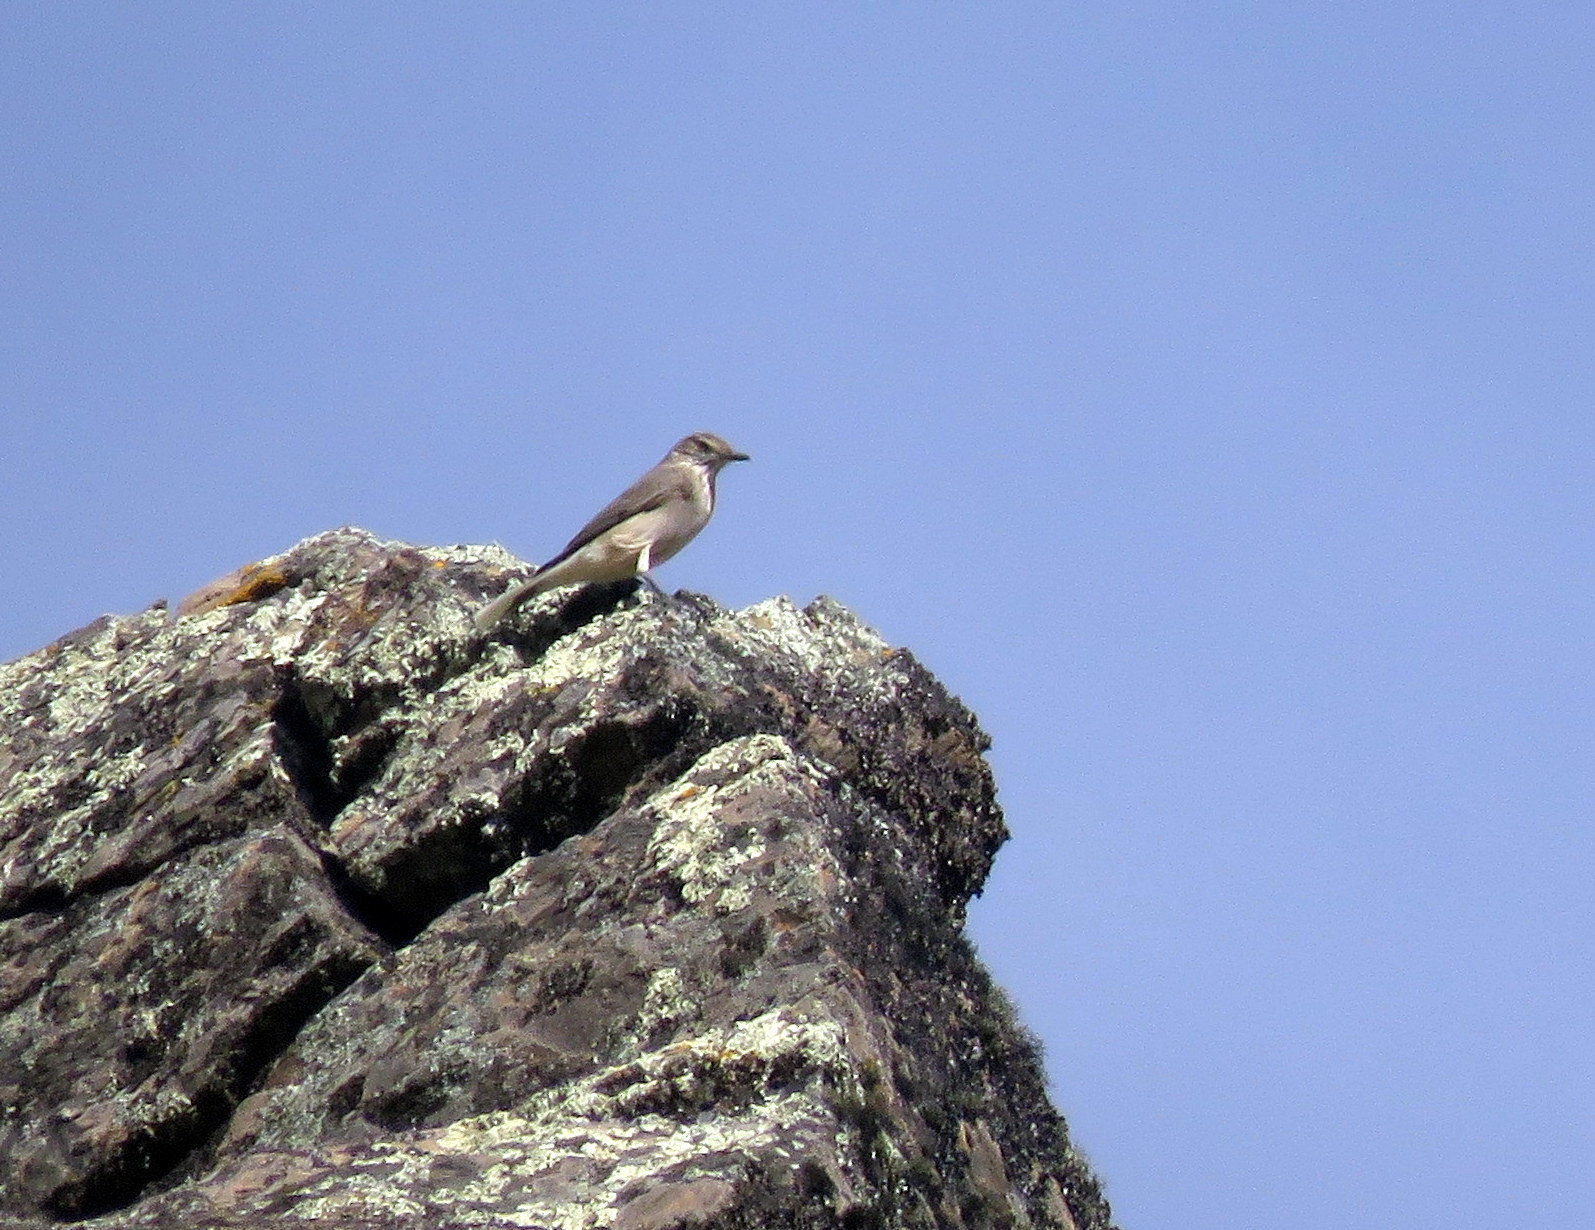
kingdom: Animalia
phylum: Chordata
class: Aves
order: Passeriformes
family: Tyrannidae
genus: Agriornis
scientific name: Agriornis montanus
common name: Black-billed shrike-tyrant
